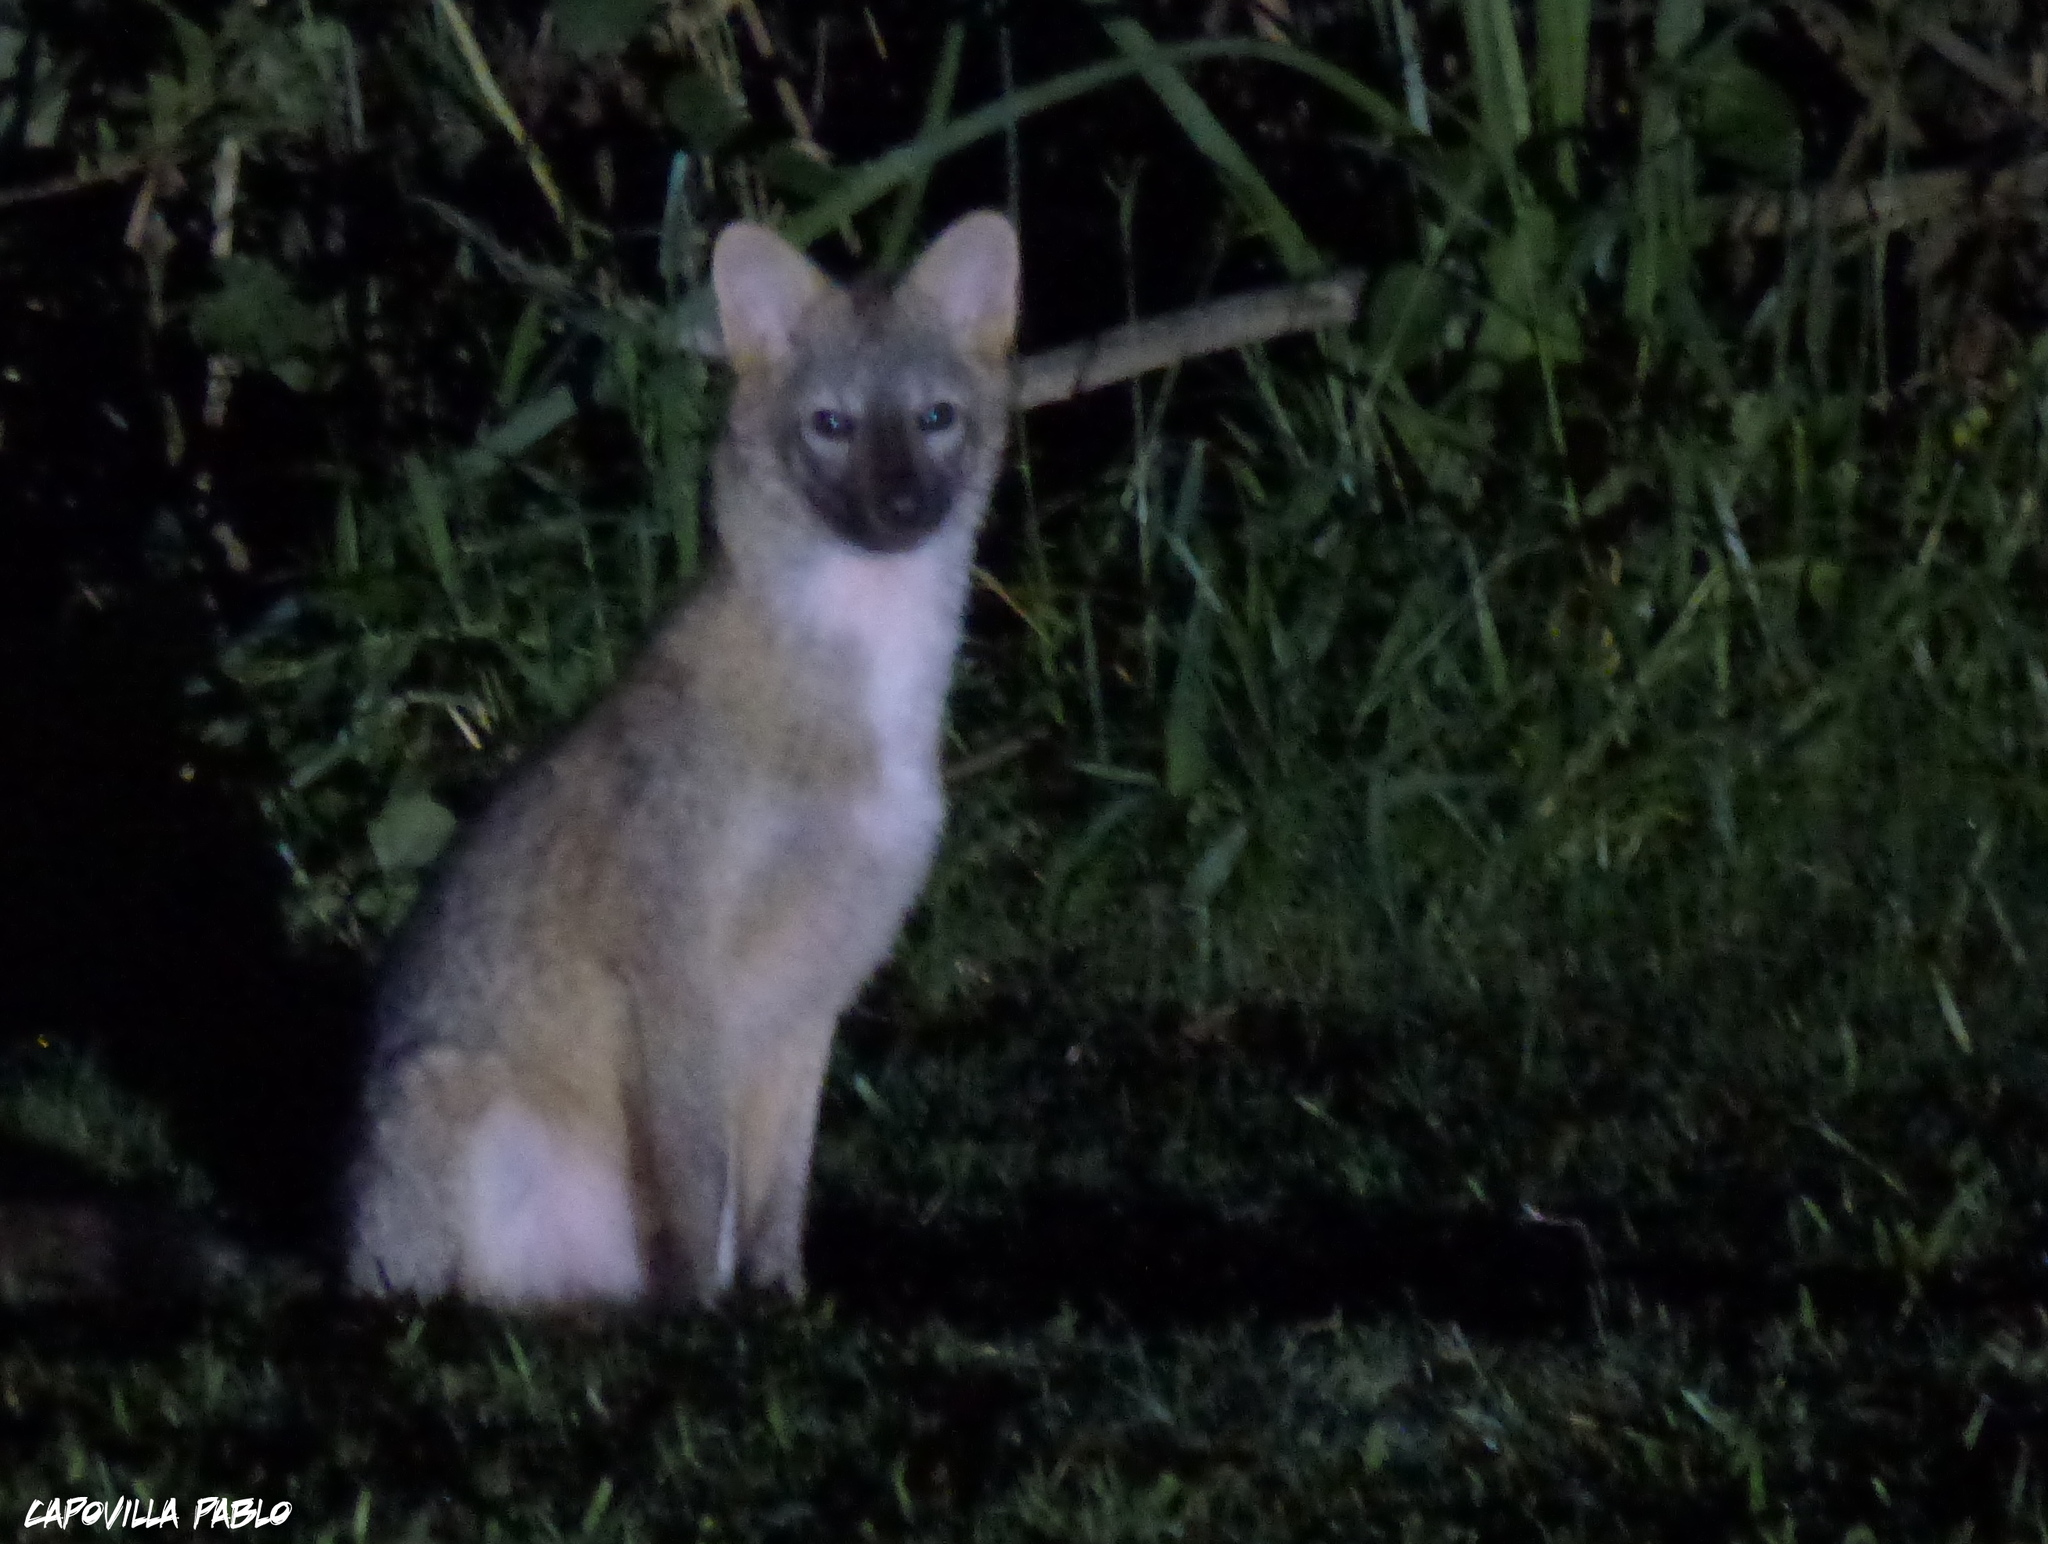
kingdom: Animalia
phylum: Chordata
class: Mammalia
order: Carnivora
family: Canidae
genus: Cerdocyon
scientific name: Cerdocyon thous
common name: Crab-eating fox
